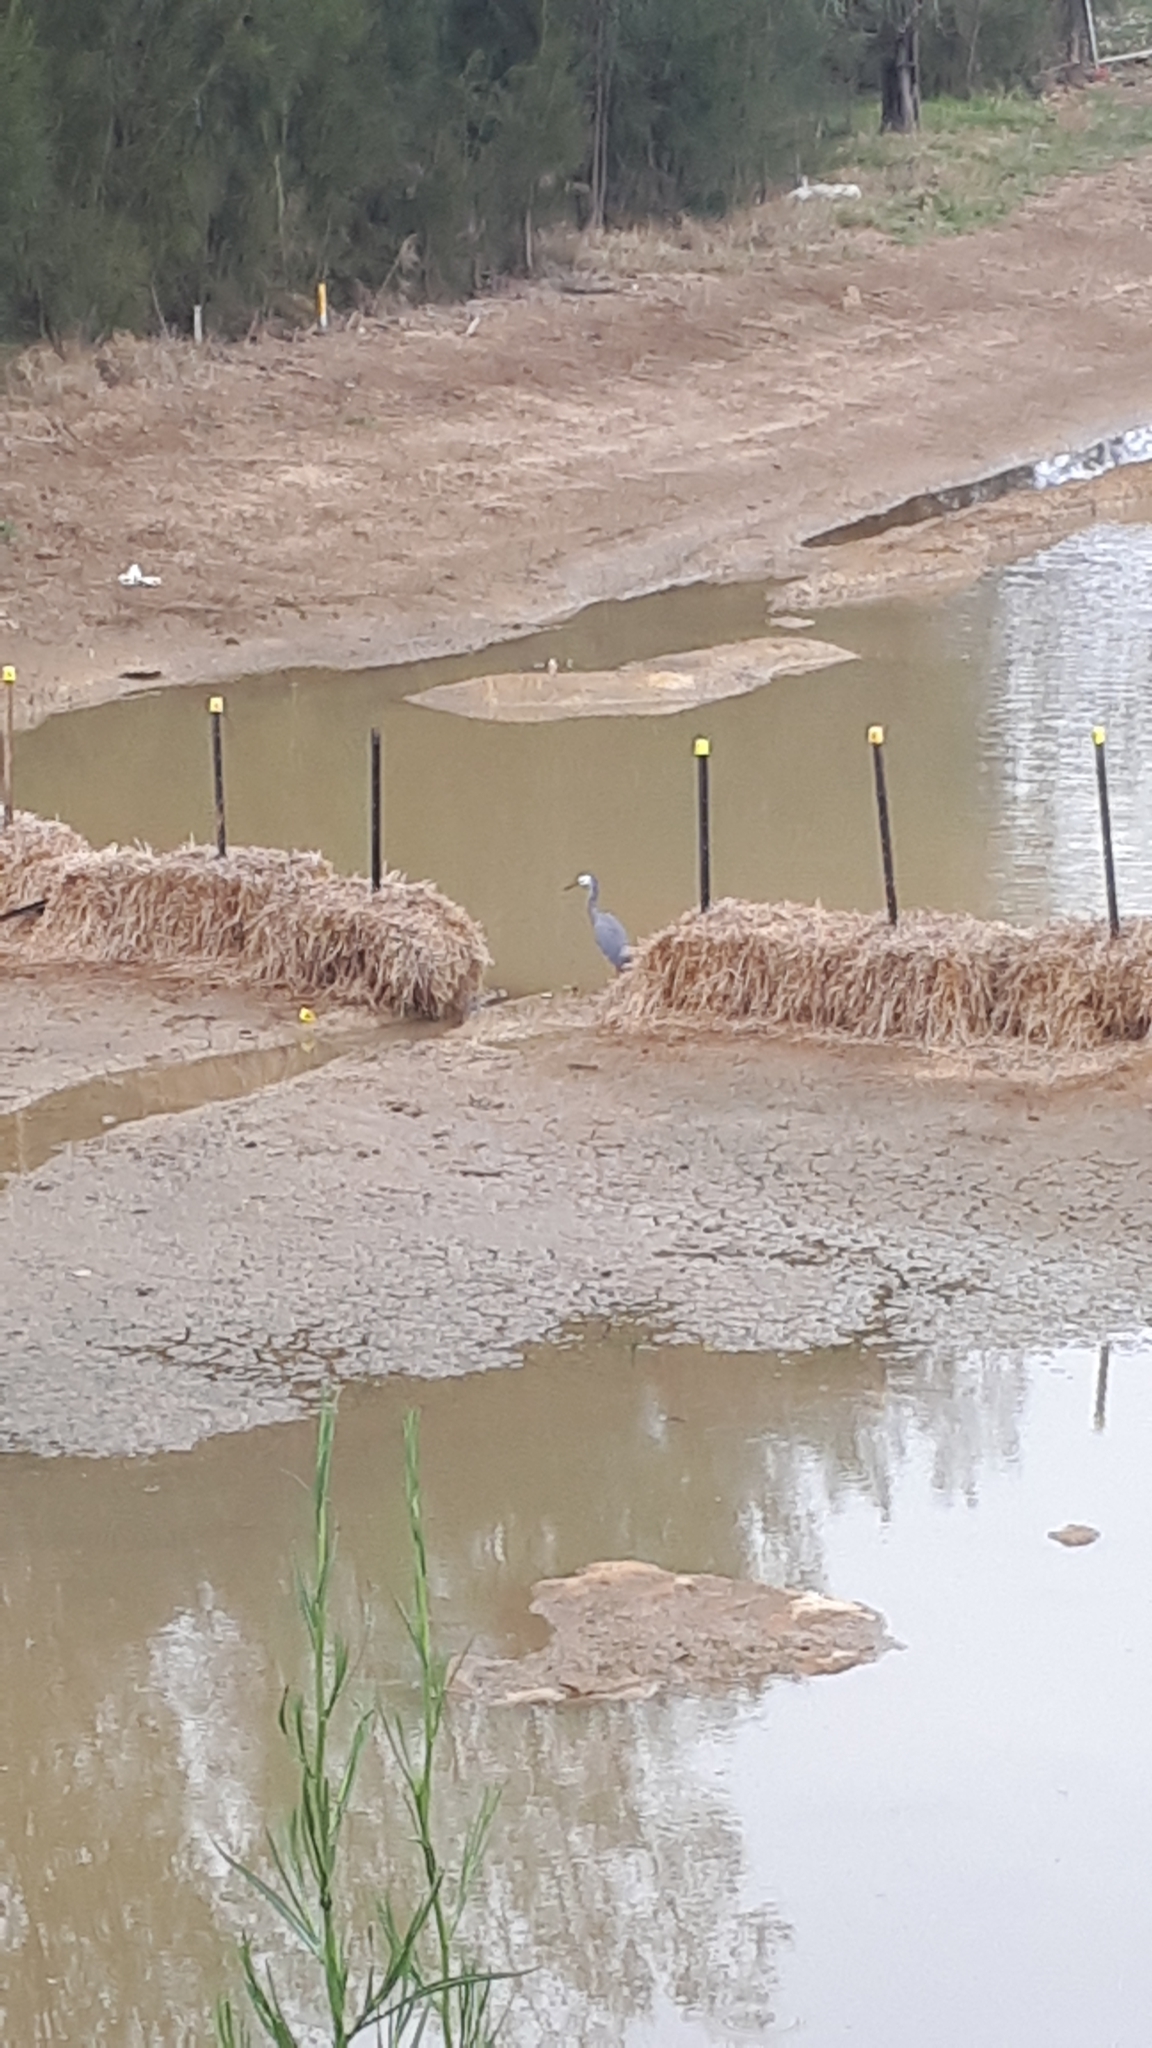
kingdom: Animalia
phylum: Chordata
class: Aves
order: Pelecaniformes
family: Ardeidae
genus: Egretta
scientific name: Egretta novaehollandiae
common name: White-faced heron
